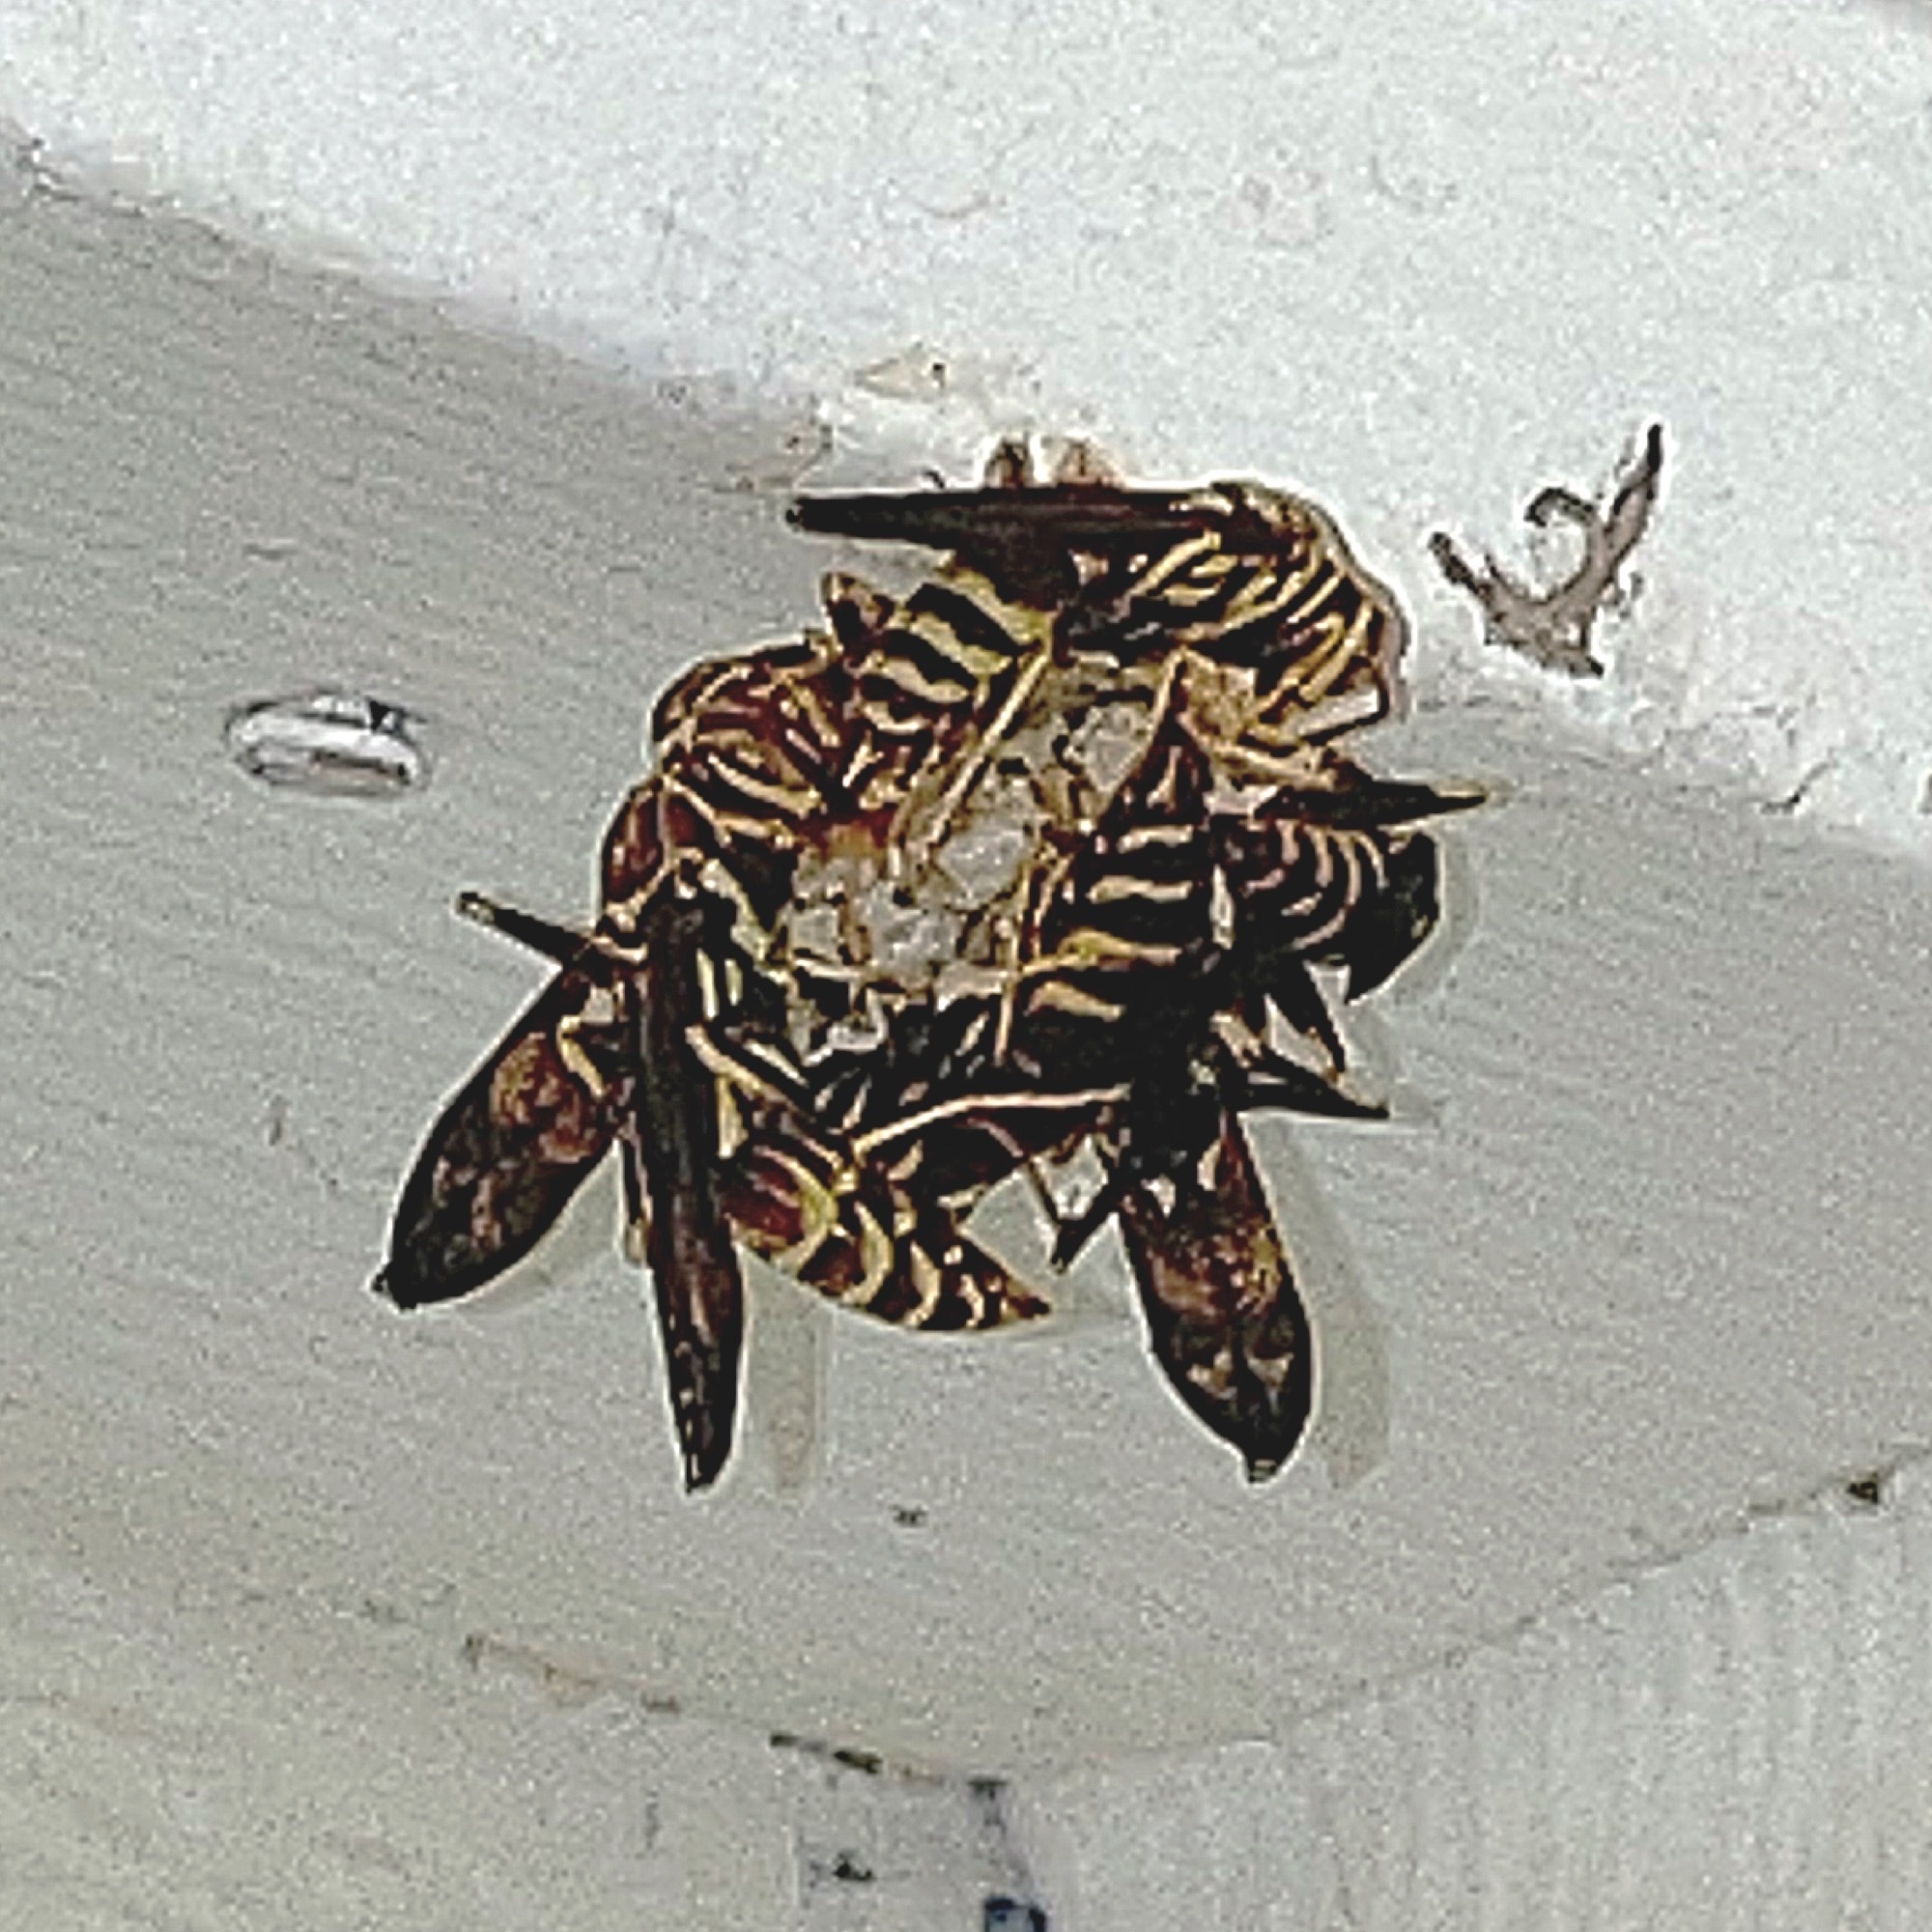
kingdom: Animalia
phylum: Arthropoda
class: Insecta
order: Hymenoptera
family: Eumenidae
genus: Polistes
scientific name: Polistes exclamans
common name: Paper wasp
